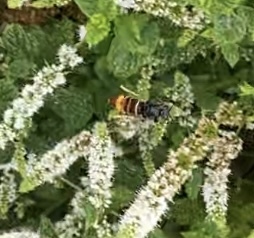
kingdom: Animalia
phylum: Arthropoda
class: Insecta
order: Hymenoptera
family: Vespidae
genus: Vespa
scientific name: Vespa velutina
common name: Asian hornet
